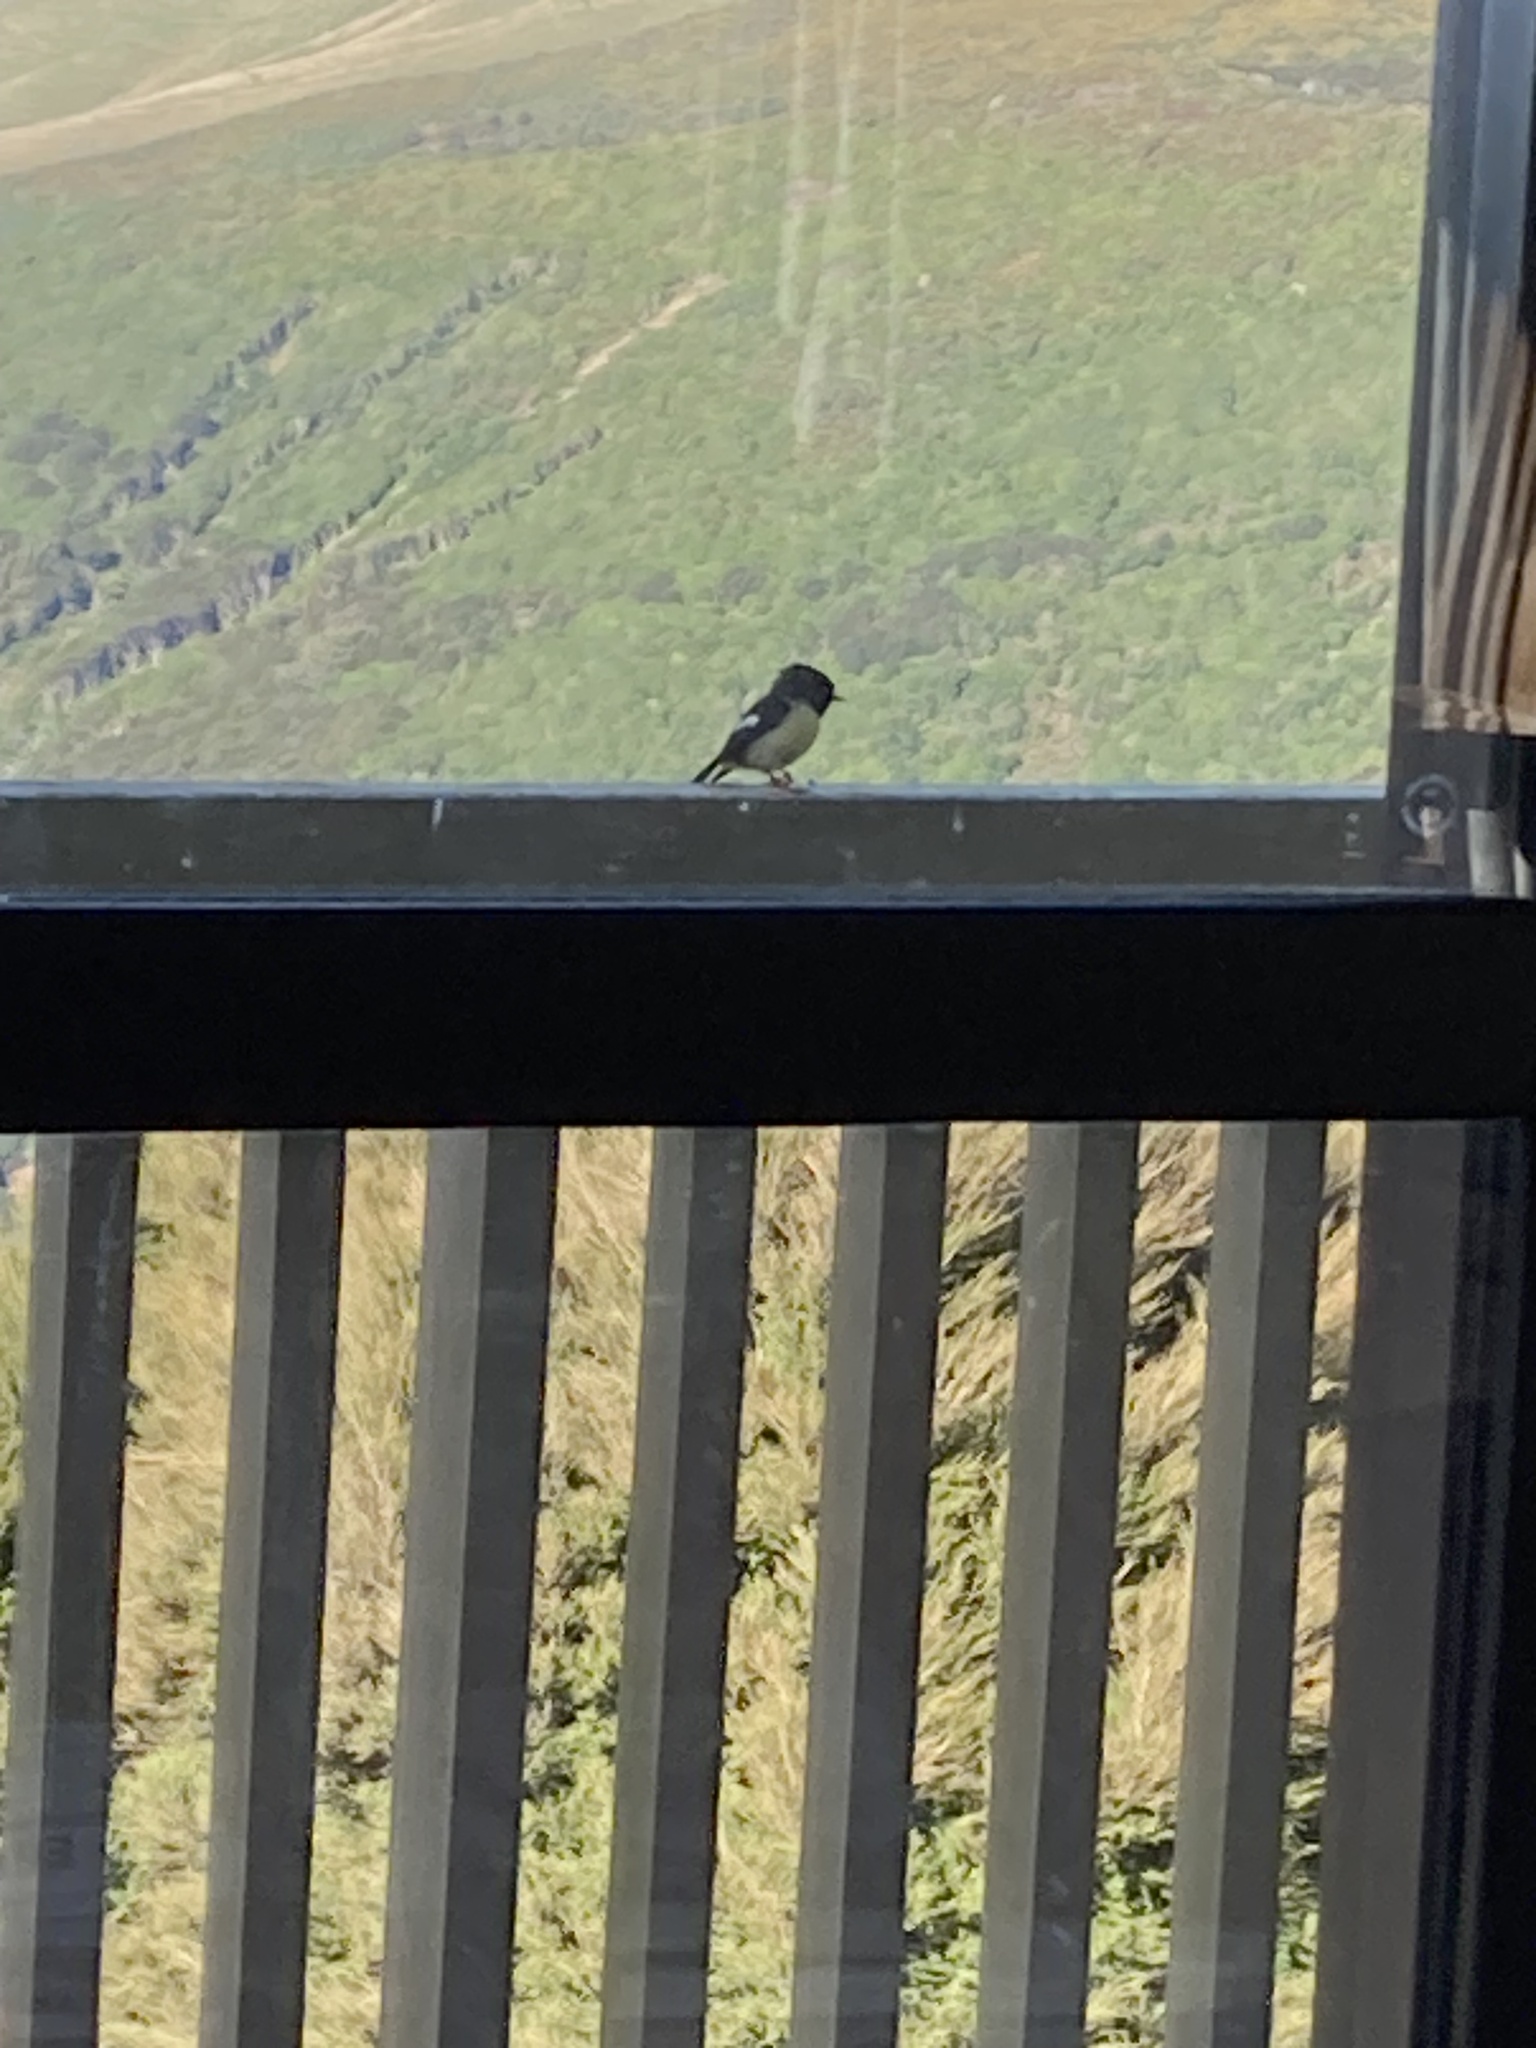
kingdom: Animalia
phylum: Chordata
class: Aves
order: Passeriformes
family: Petroicidae
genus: Petroica
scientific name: Petroica macrocephala
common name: Tomtit
